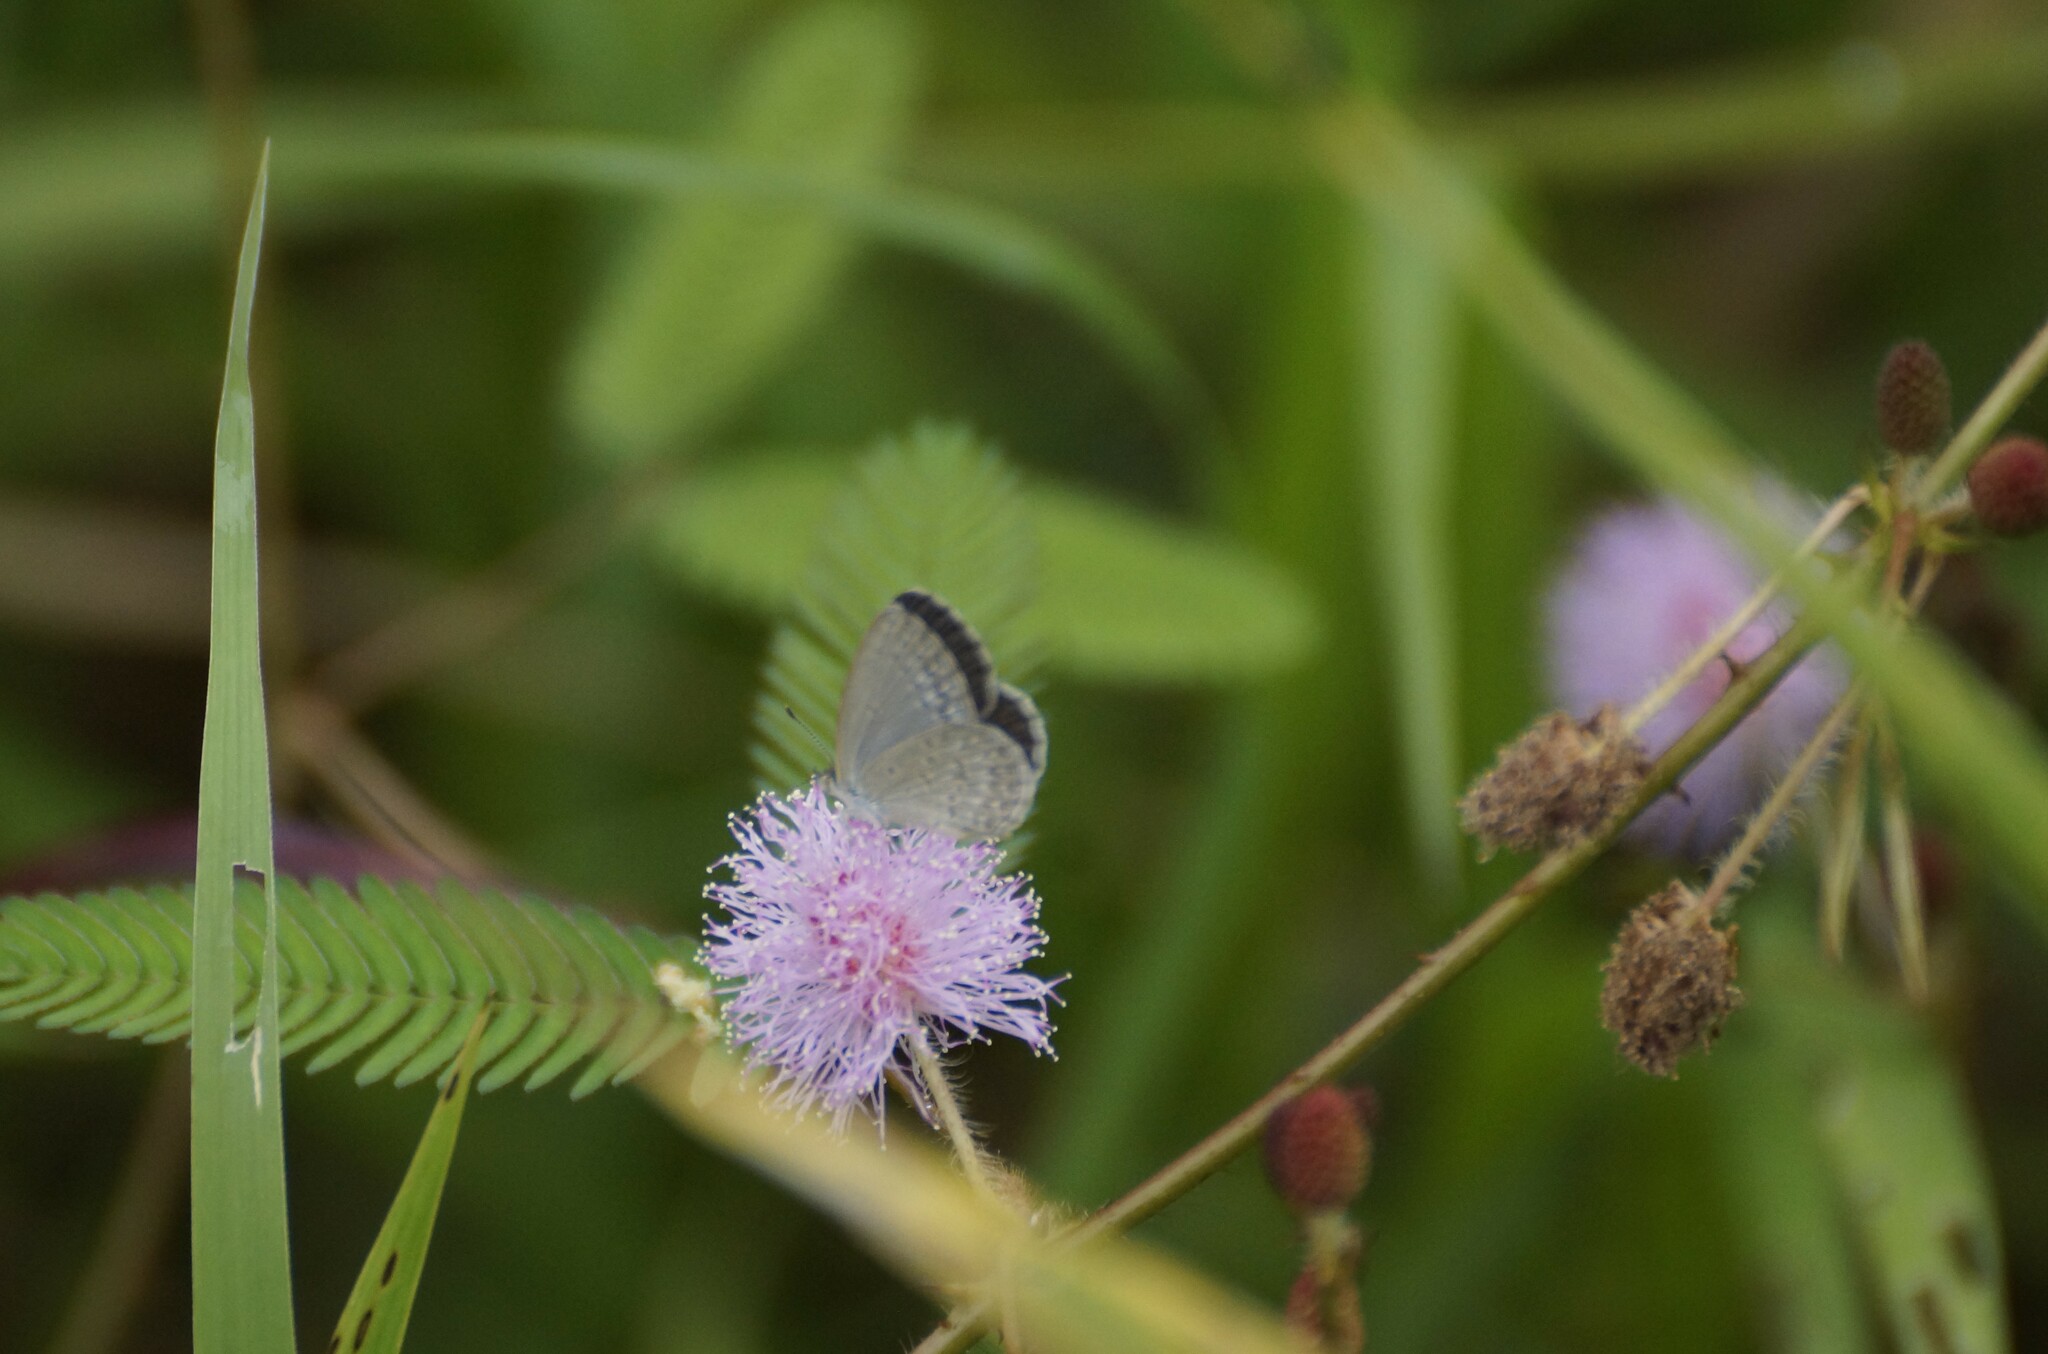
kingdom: Animalia
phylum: Arthropoda
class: Insecta
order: Lepidoptera
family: Lycaenidae
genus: Zizina
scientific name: Zizina otis
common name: Lesser grass blue
